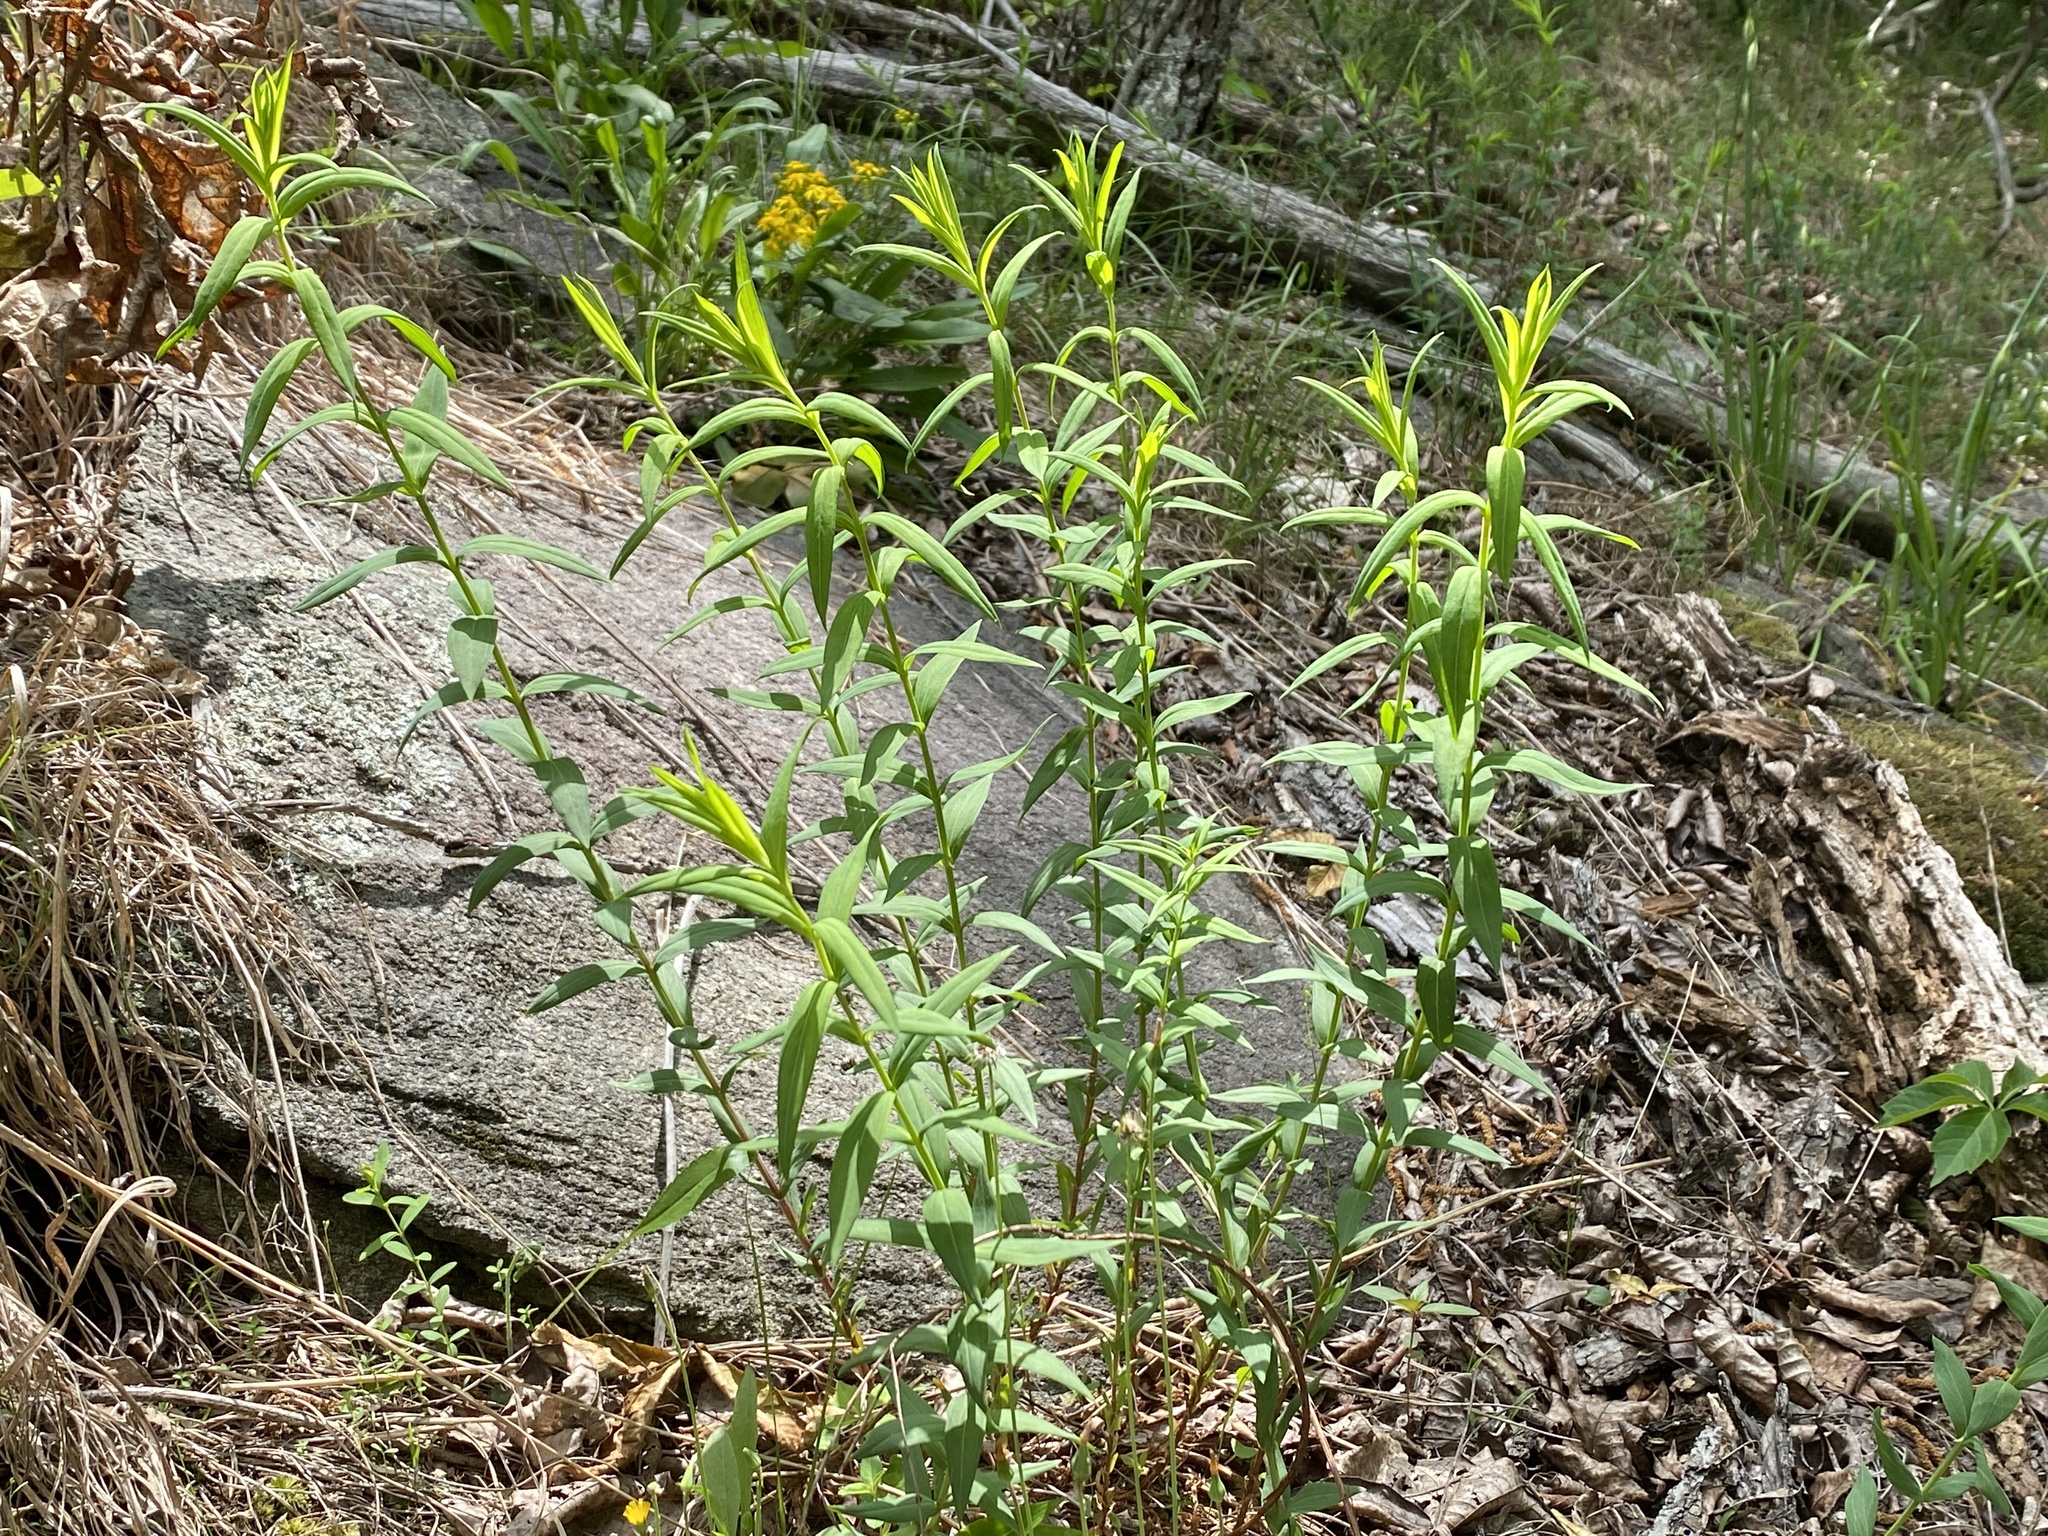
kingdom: Plantae
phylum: Tracheophyta
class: Magnoliopsida
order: Malpighiales
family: Hypericaceae
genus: Hypericum
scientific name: Hypericum radfordiorum
